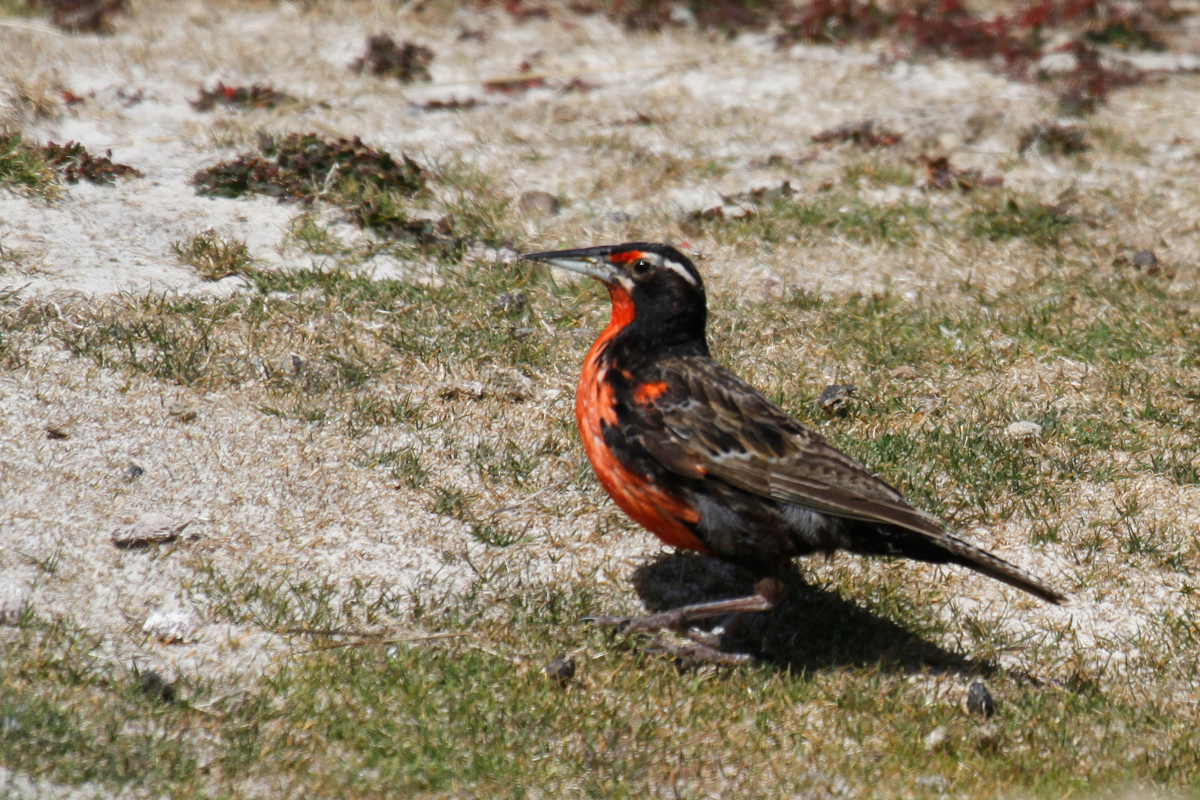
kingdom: Animalia
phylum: Chordata
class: Aves
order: Passeriformes
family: Icteridae
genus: Sturnella
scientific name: Sturnella loyca
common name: Long-tailed meadowlark
